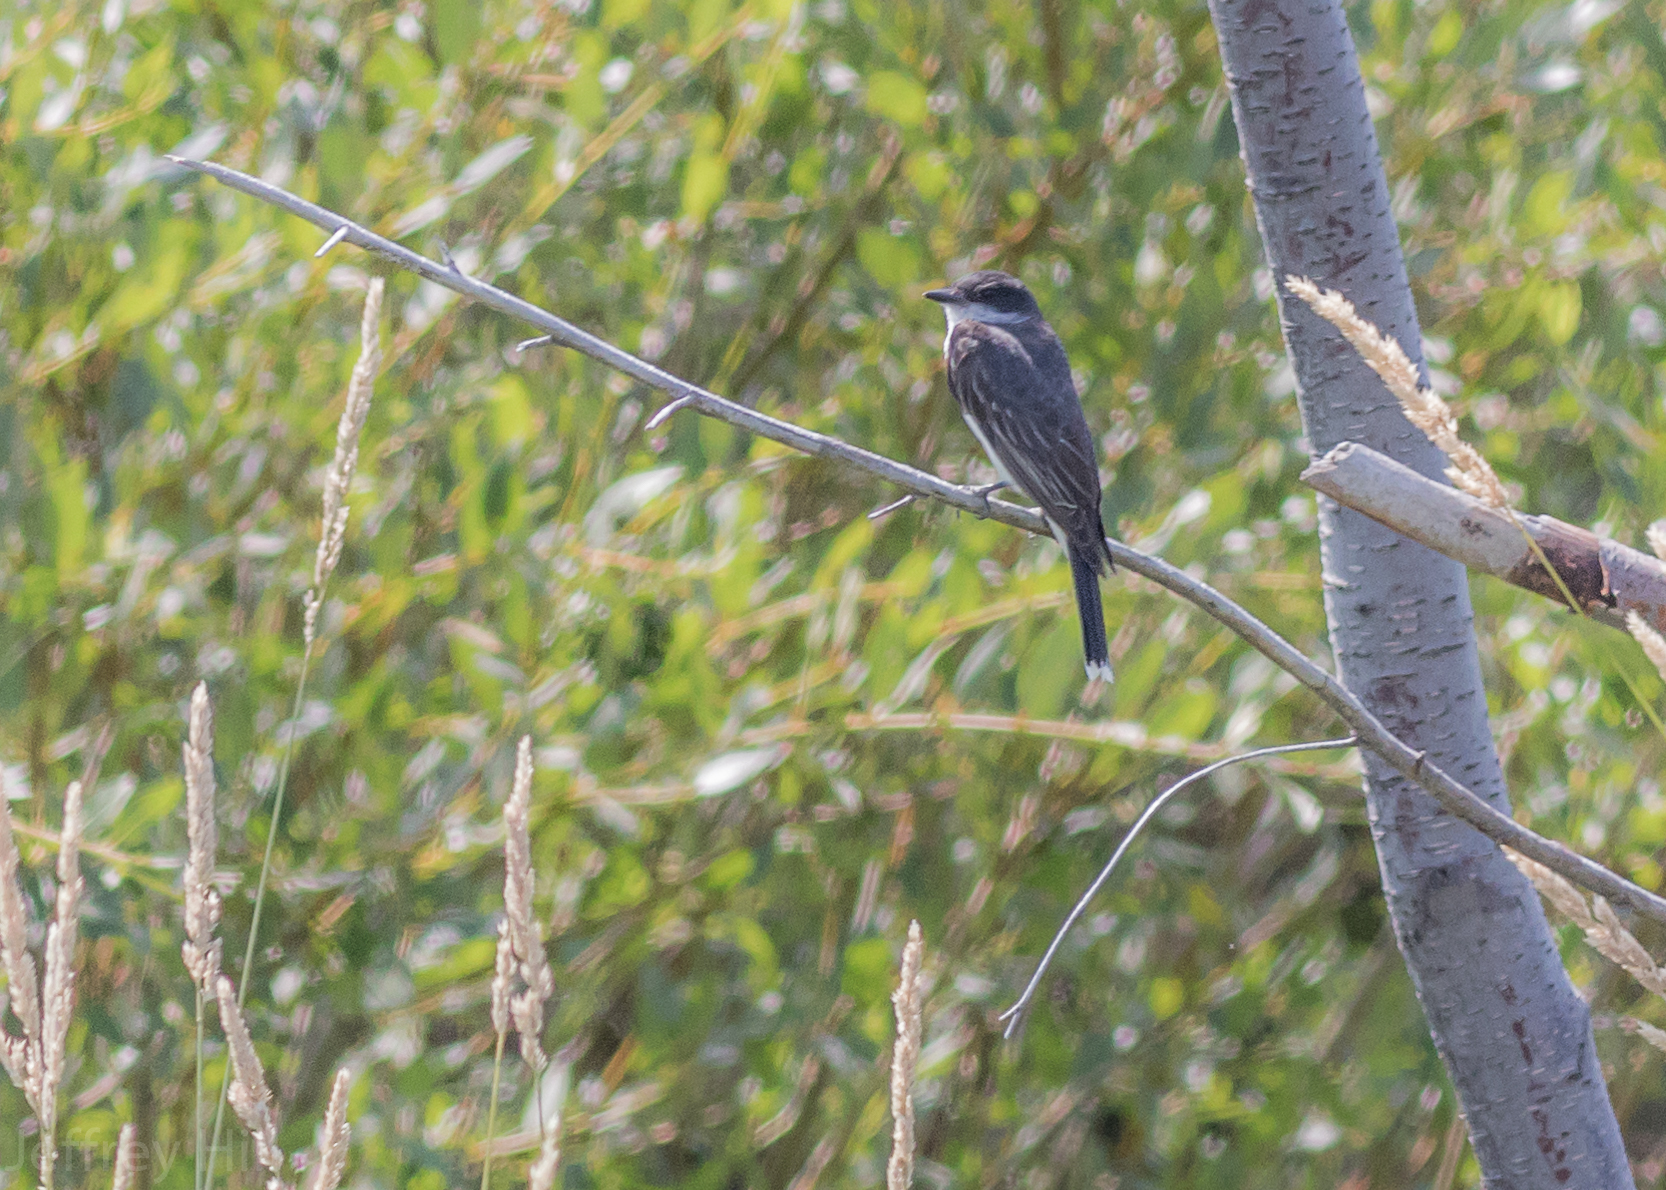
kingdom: Animalia
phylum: Chordata
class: Aves
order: Passeriformes
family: Tyrannidae
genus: Tyrannus
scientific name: Tyrannus tyrannus
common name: Eastern kingbird
